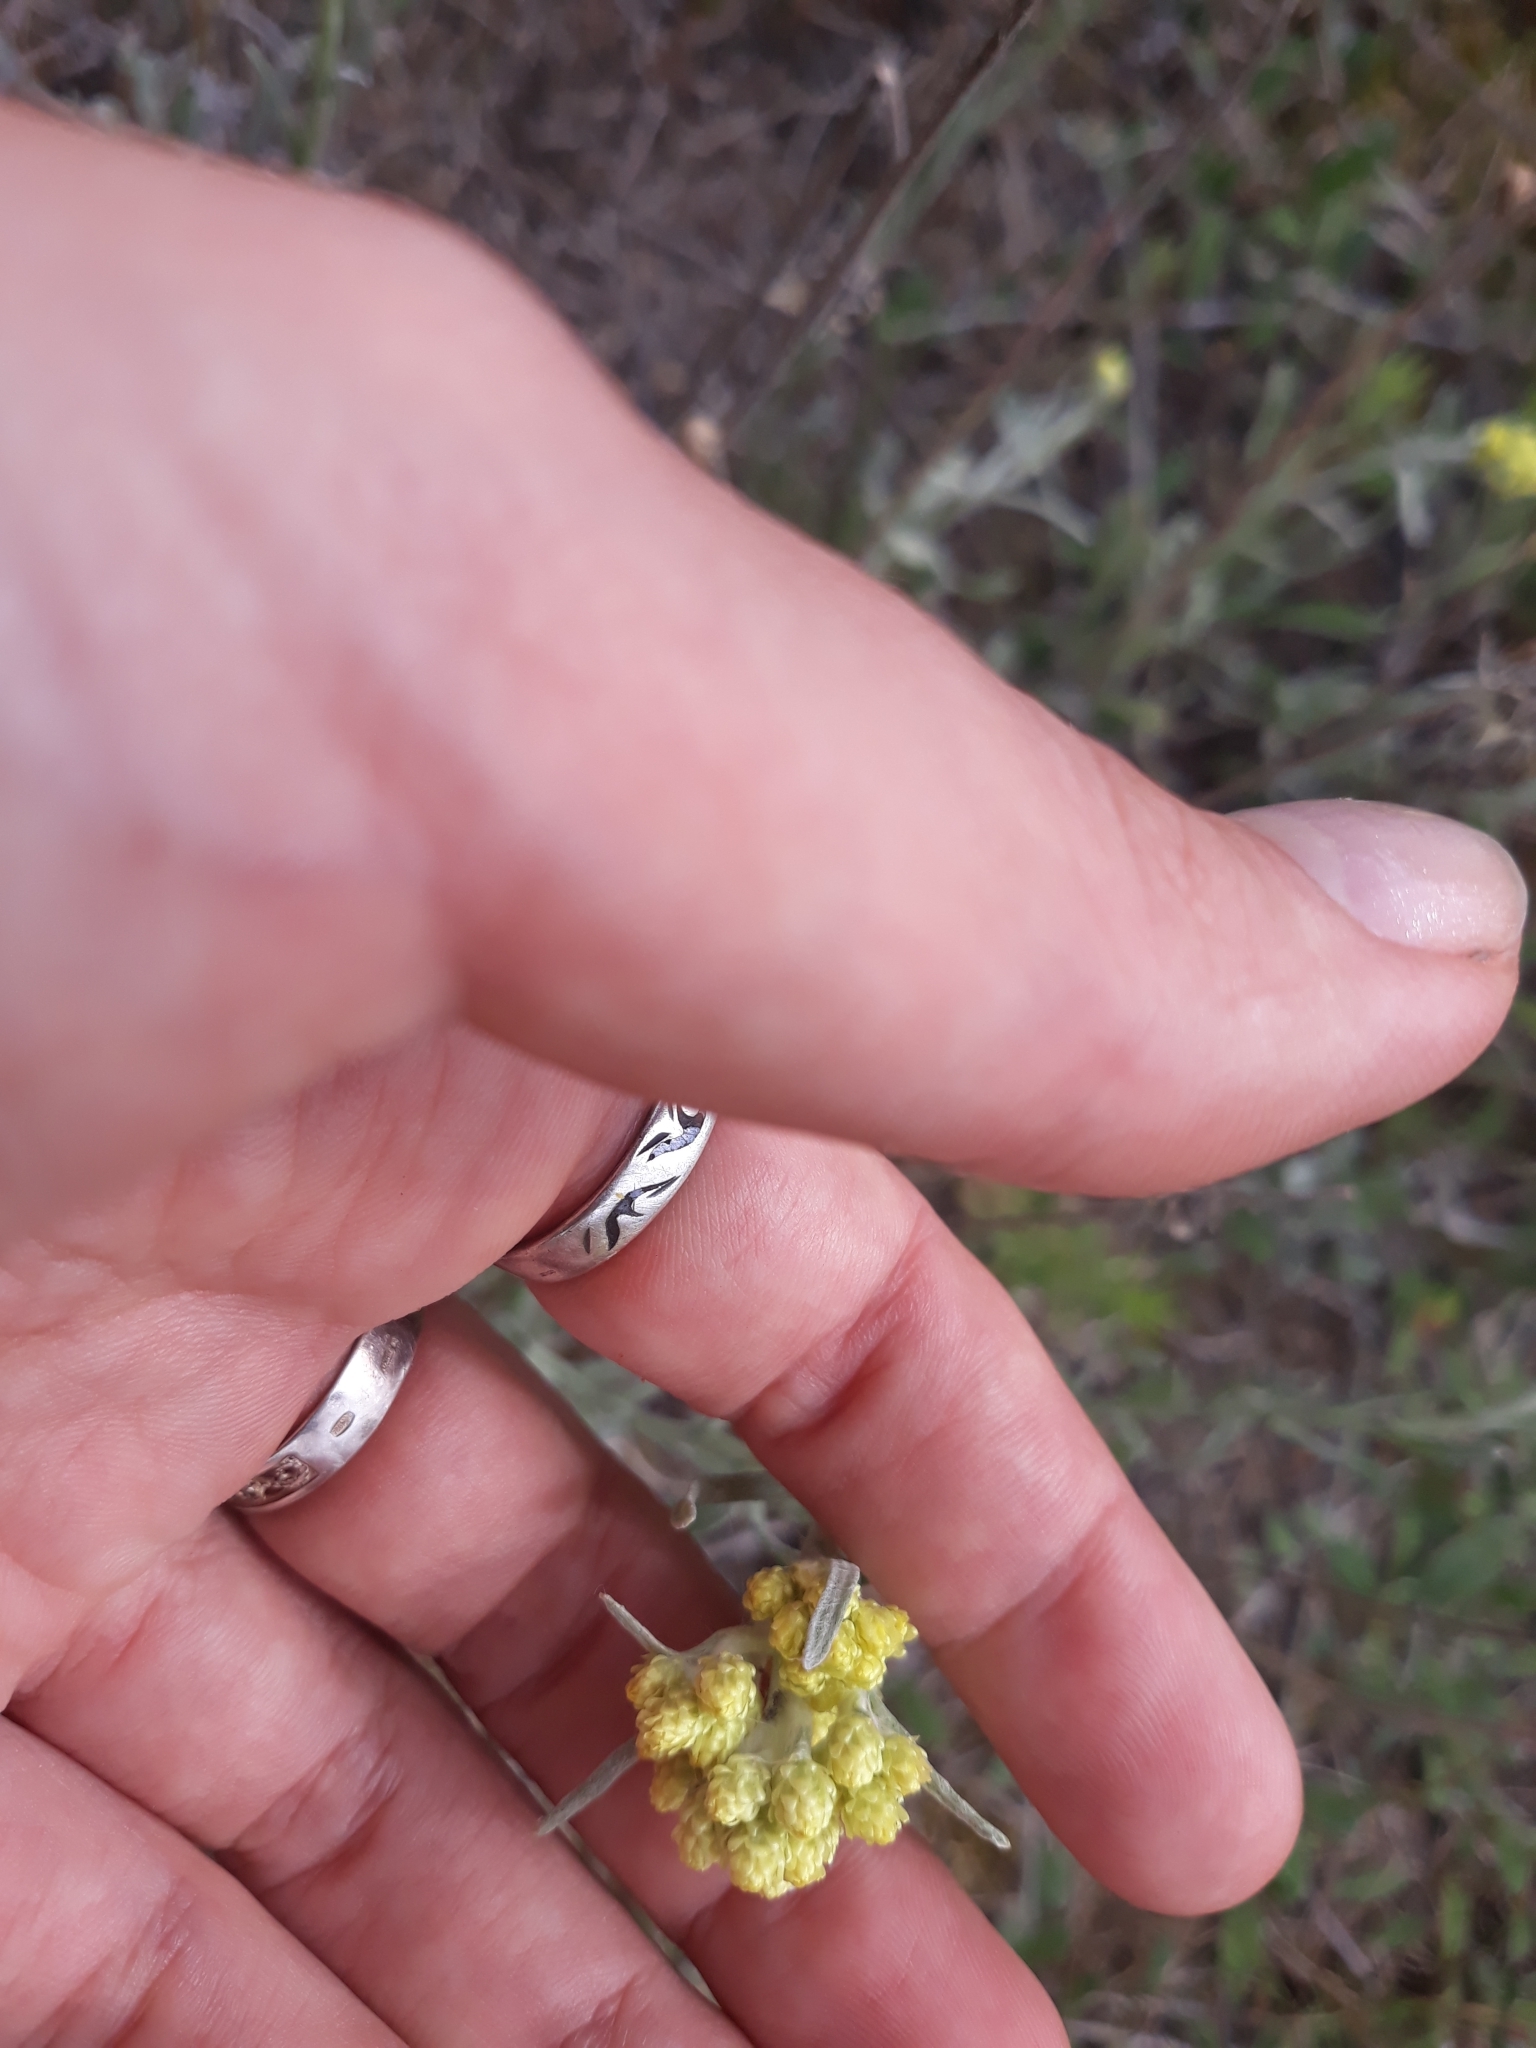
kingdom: Plantae
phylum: Tracheophyta
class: Magnoliopsida
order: Asterales
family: Asteraceae
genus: Helichrysum
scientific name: Helichrysum arenarium
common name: Strawflower
